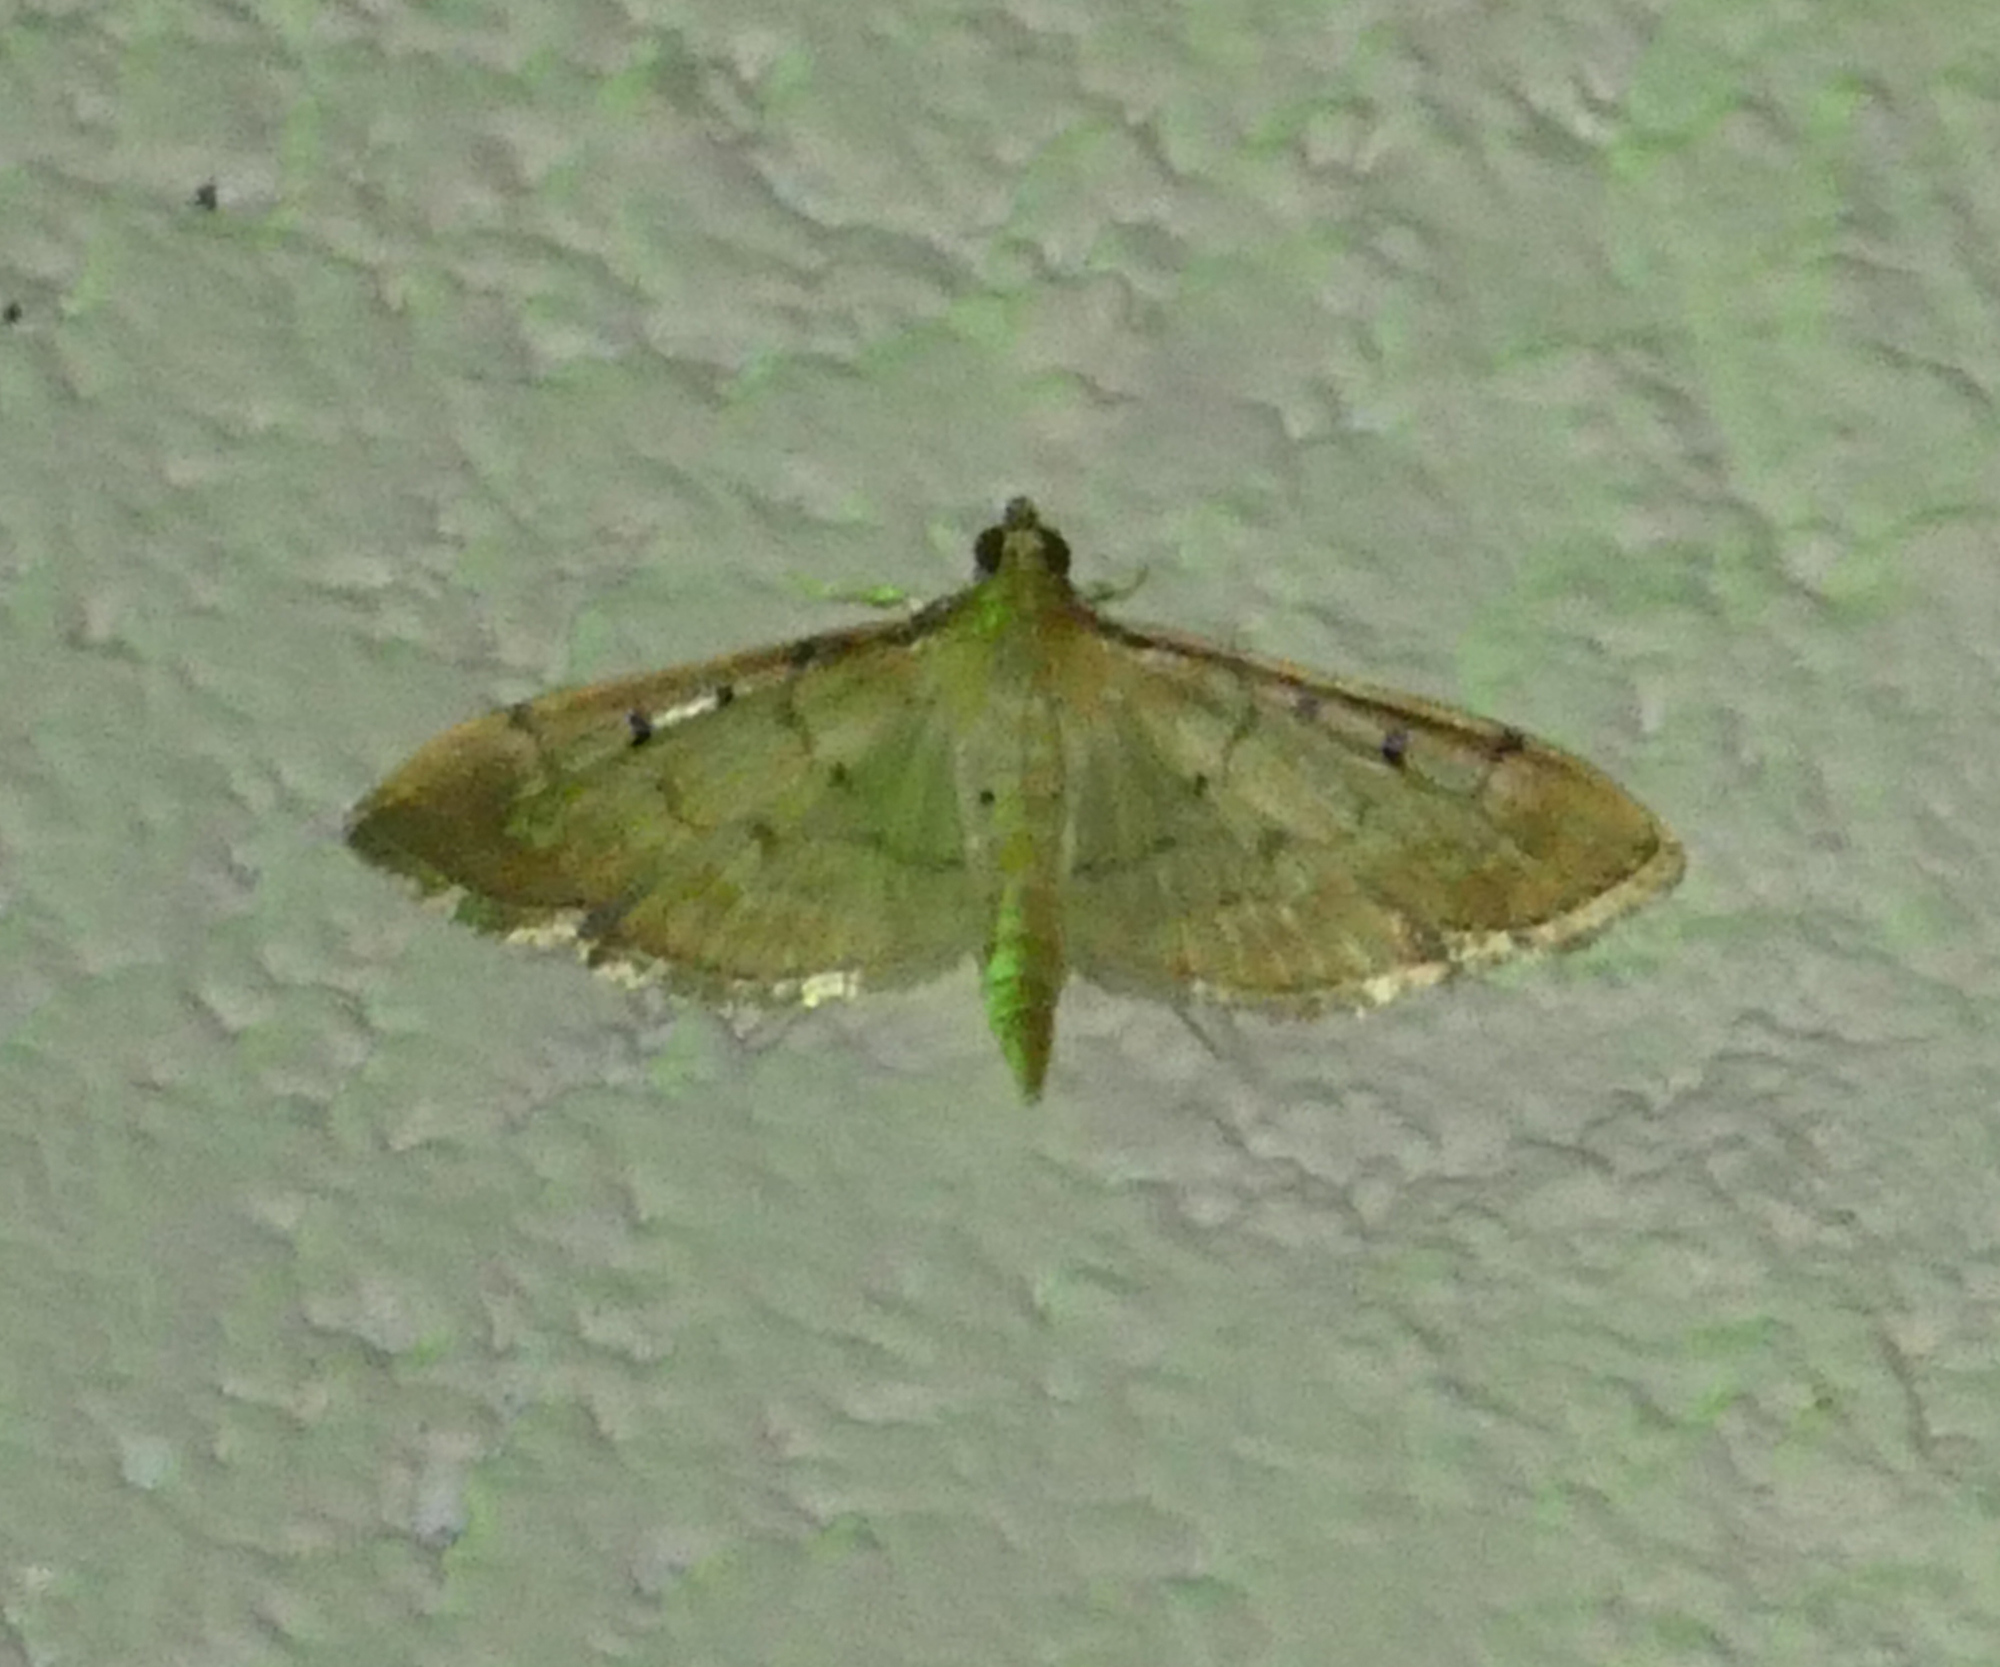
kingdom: Animalia
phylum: Arthropoda
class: Insecta
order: Lepidoptera
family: Crambidae
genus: Herpetogramma
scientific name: Herpetogramma bipunctalis
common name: Southern beet webworm
